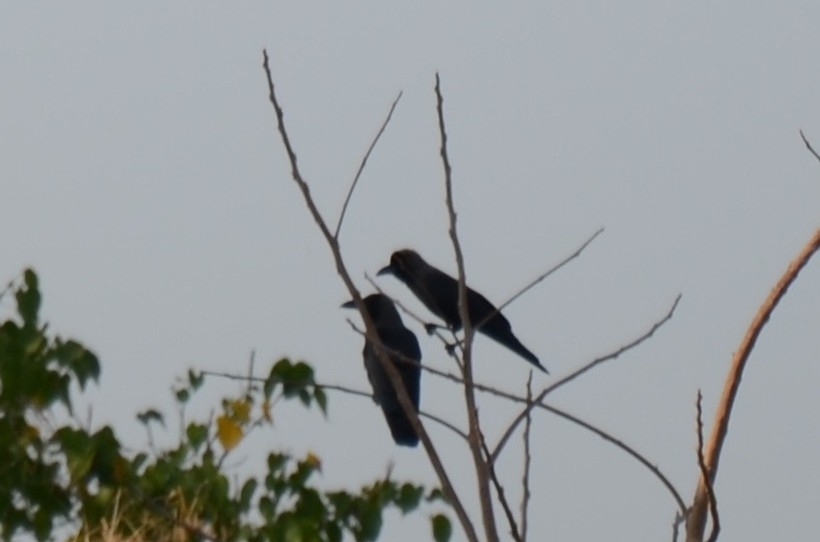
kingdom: Animalia
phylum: Chordata
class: Aves
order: Passeriformes
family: Corvidae
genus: Corvus
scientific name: Corvus macrorhynchos
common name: Large-billed crow
